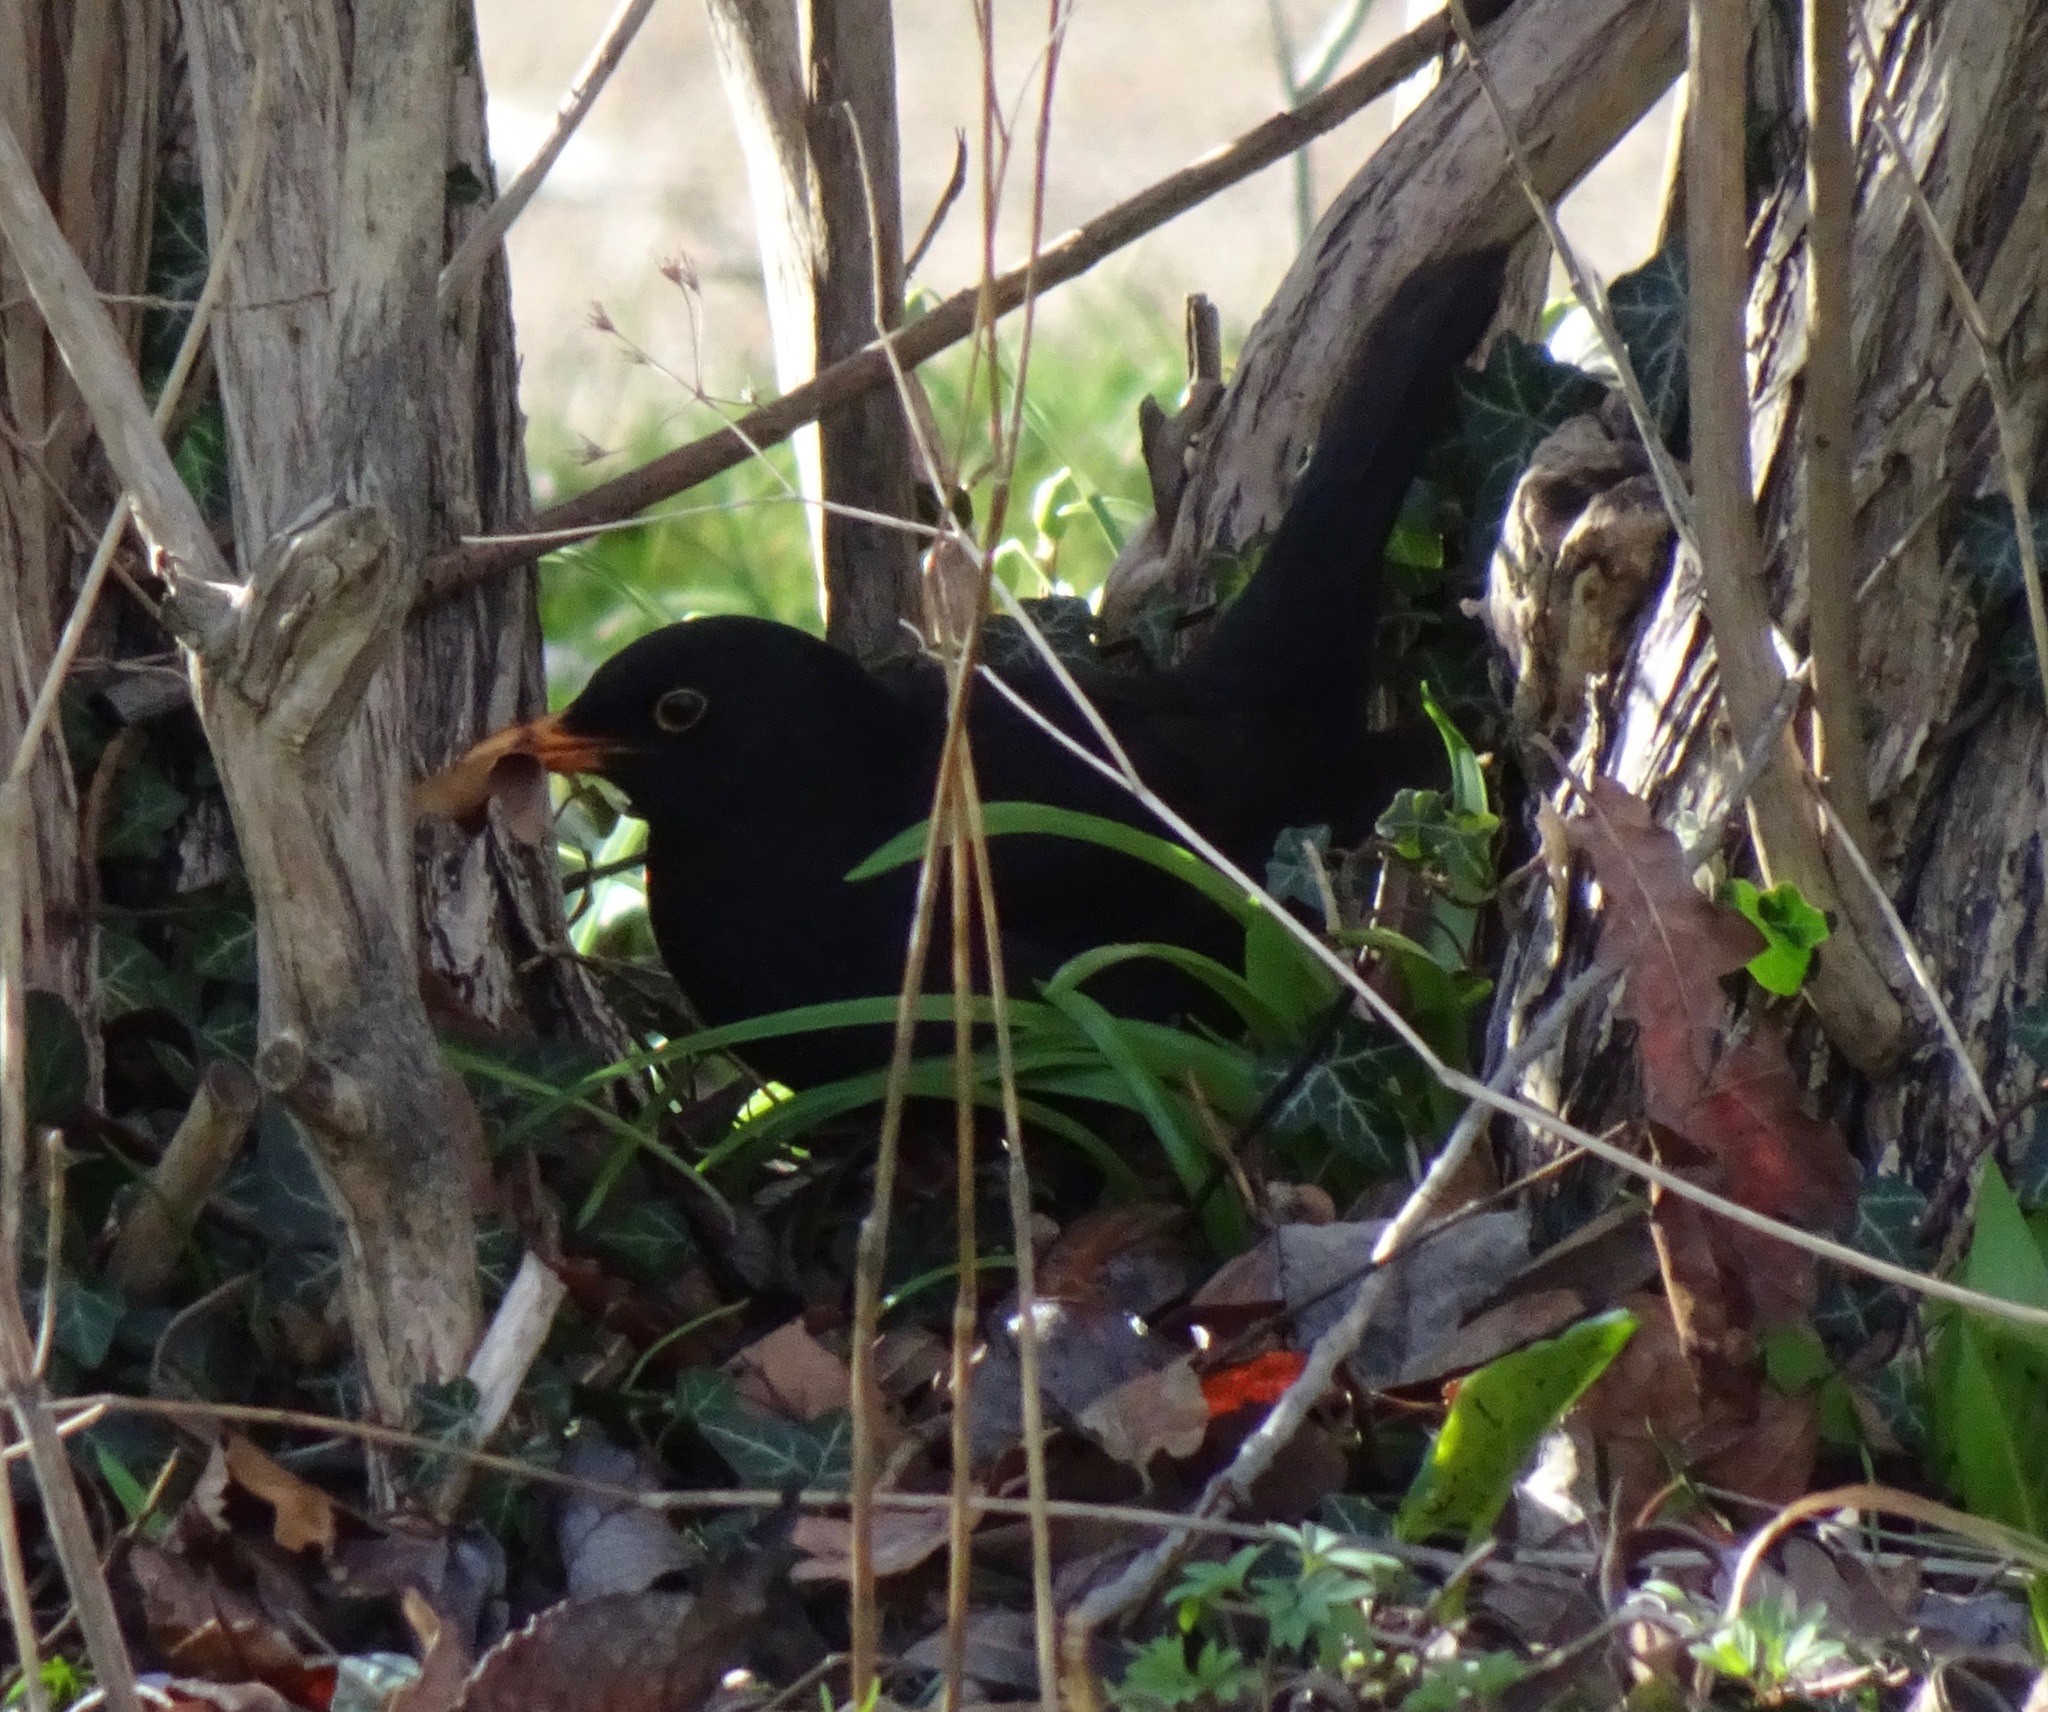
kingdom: Animalia
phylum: Chordata
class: Aves
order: Passeriformes
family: Turdidae
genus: Turdus
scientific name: Turdus merula
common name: Common blackbird
